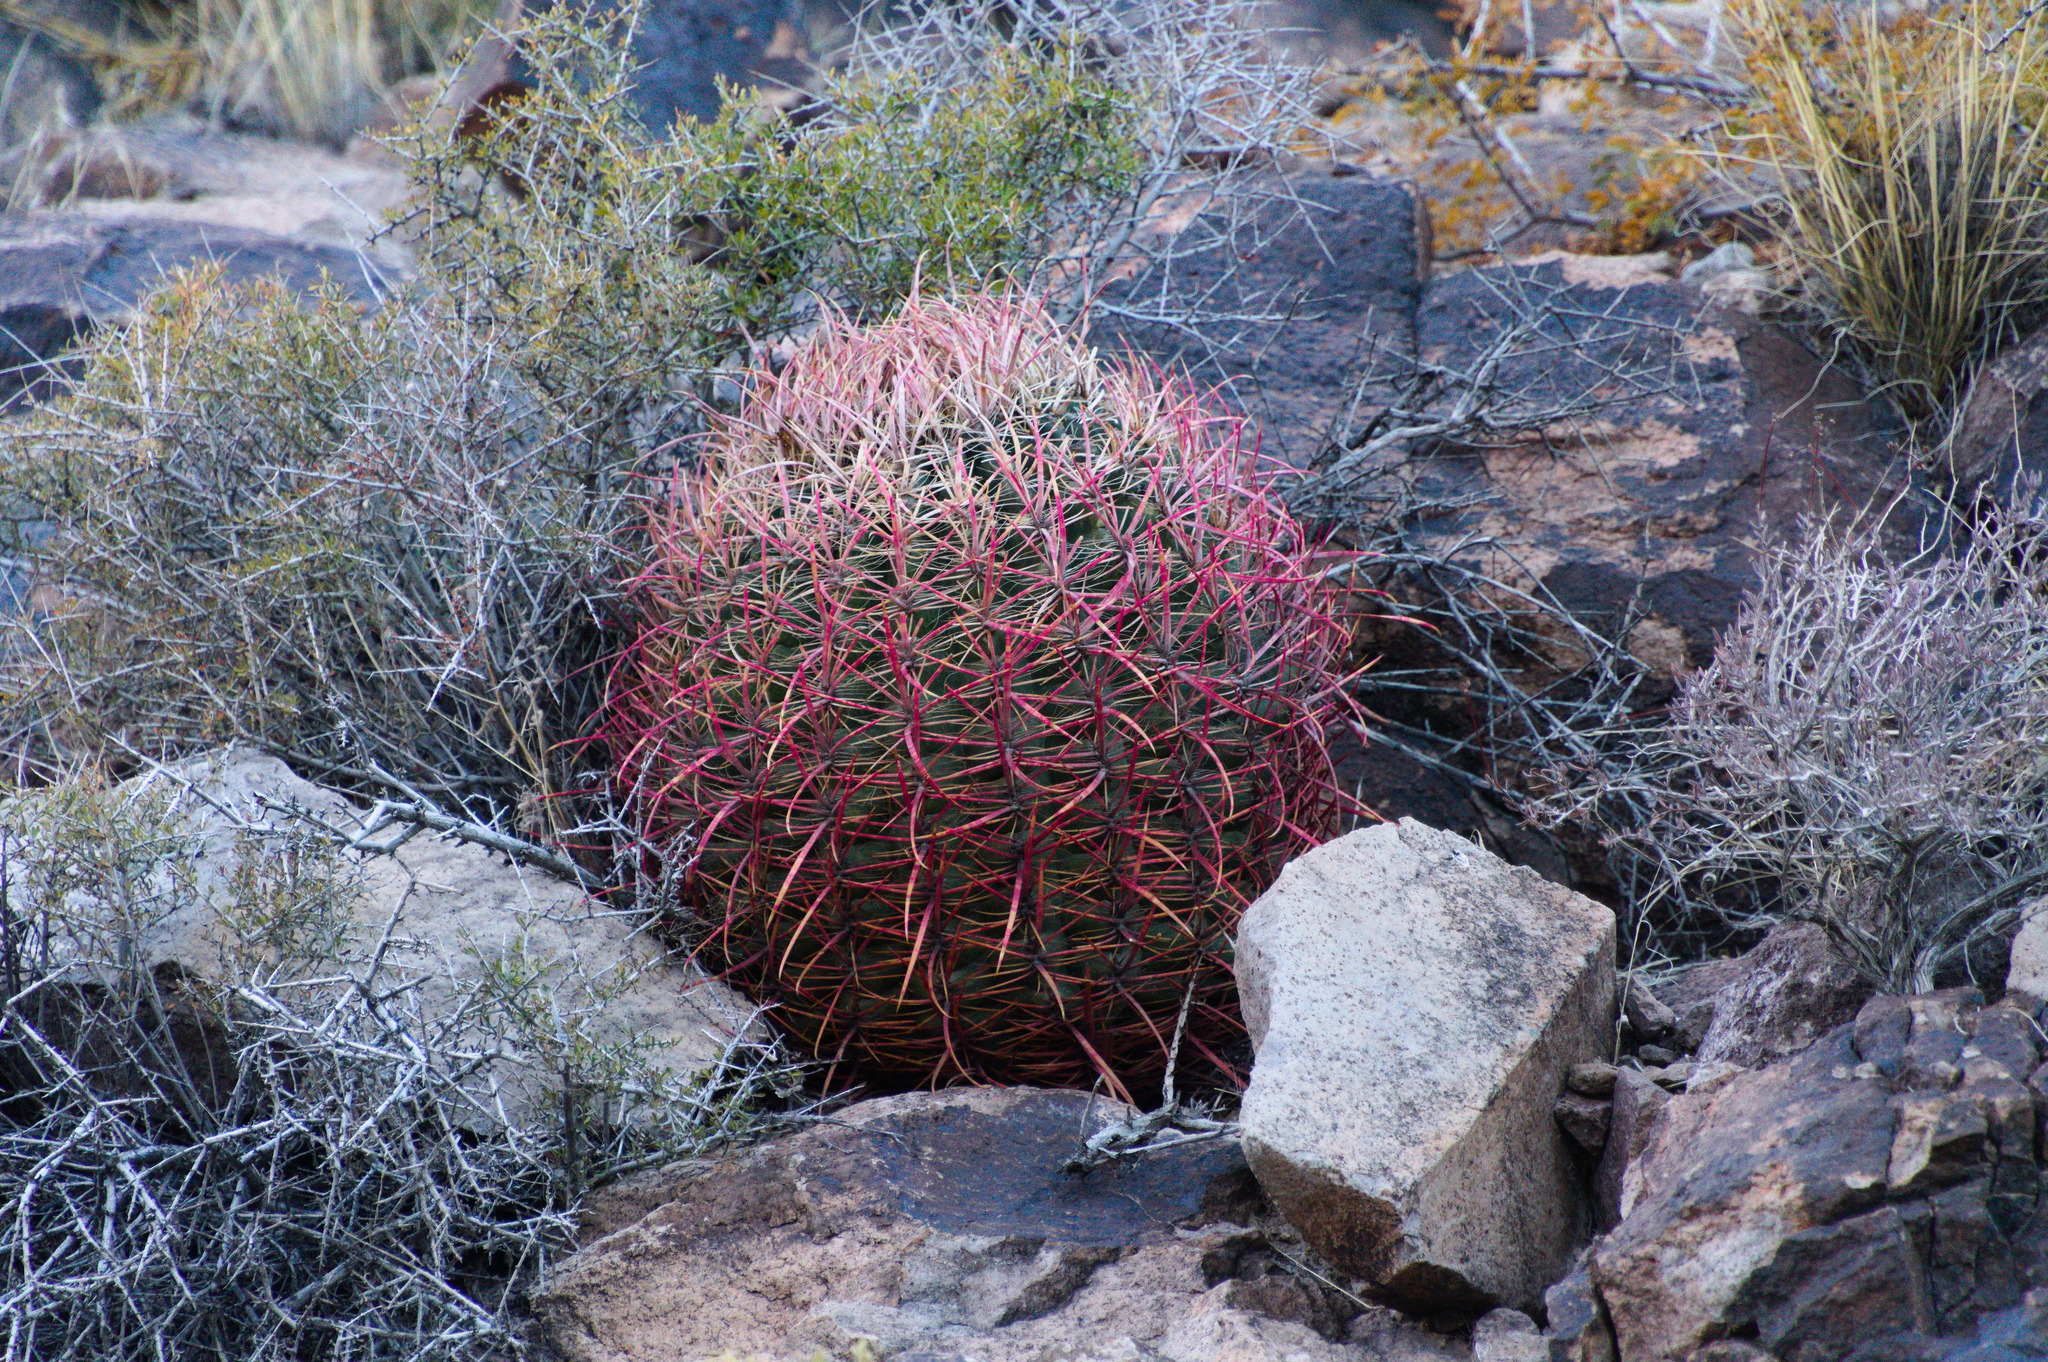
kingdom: Plantae
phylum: Tracheophyta
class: Magnoliopsida
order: Caryophyllales
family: Cactaceae
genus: Ferocactus
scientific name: Ferocactus cylindraceus
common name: California barrel cactus
